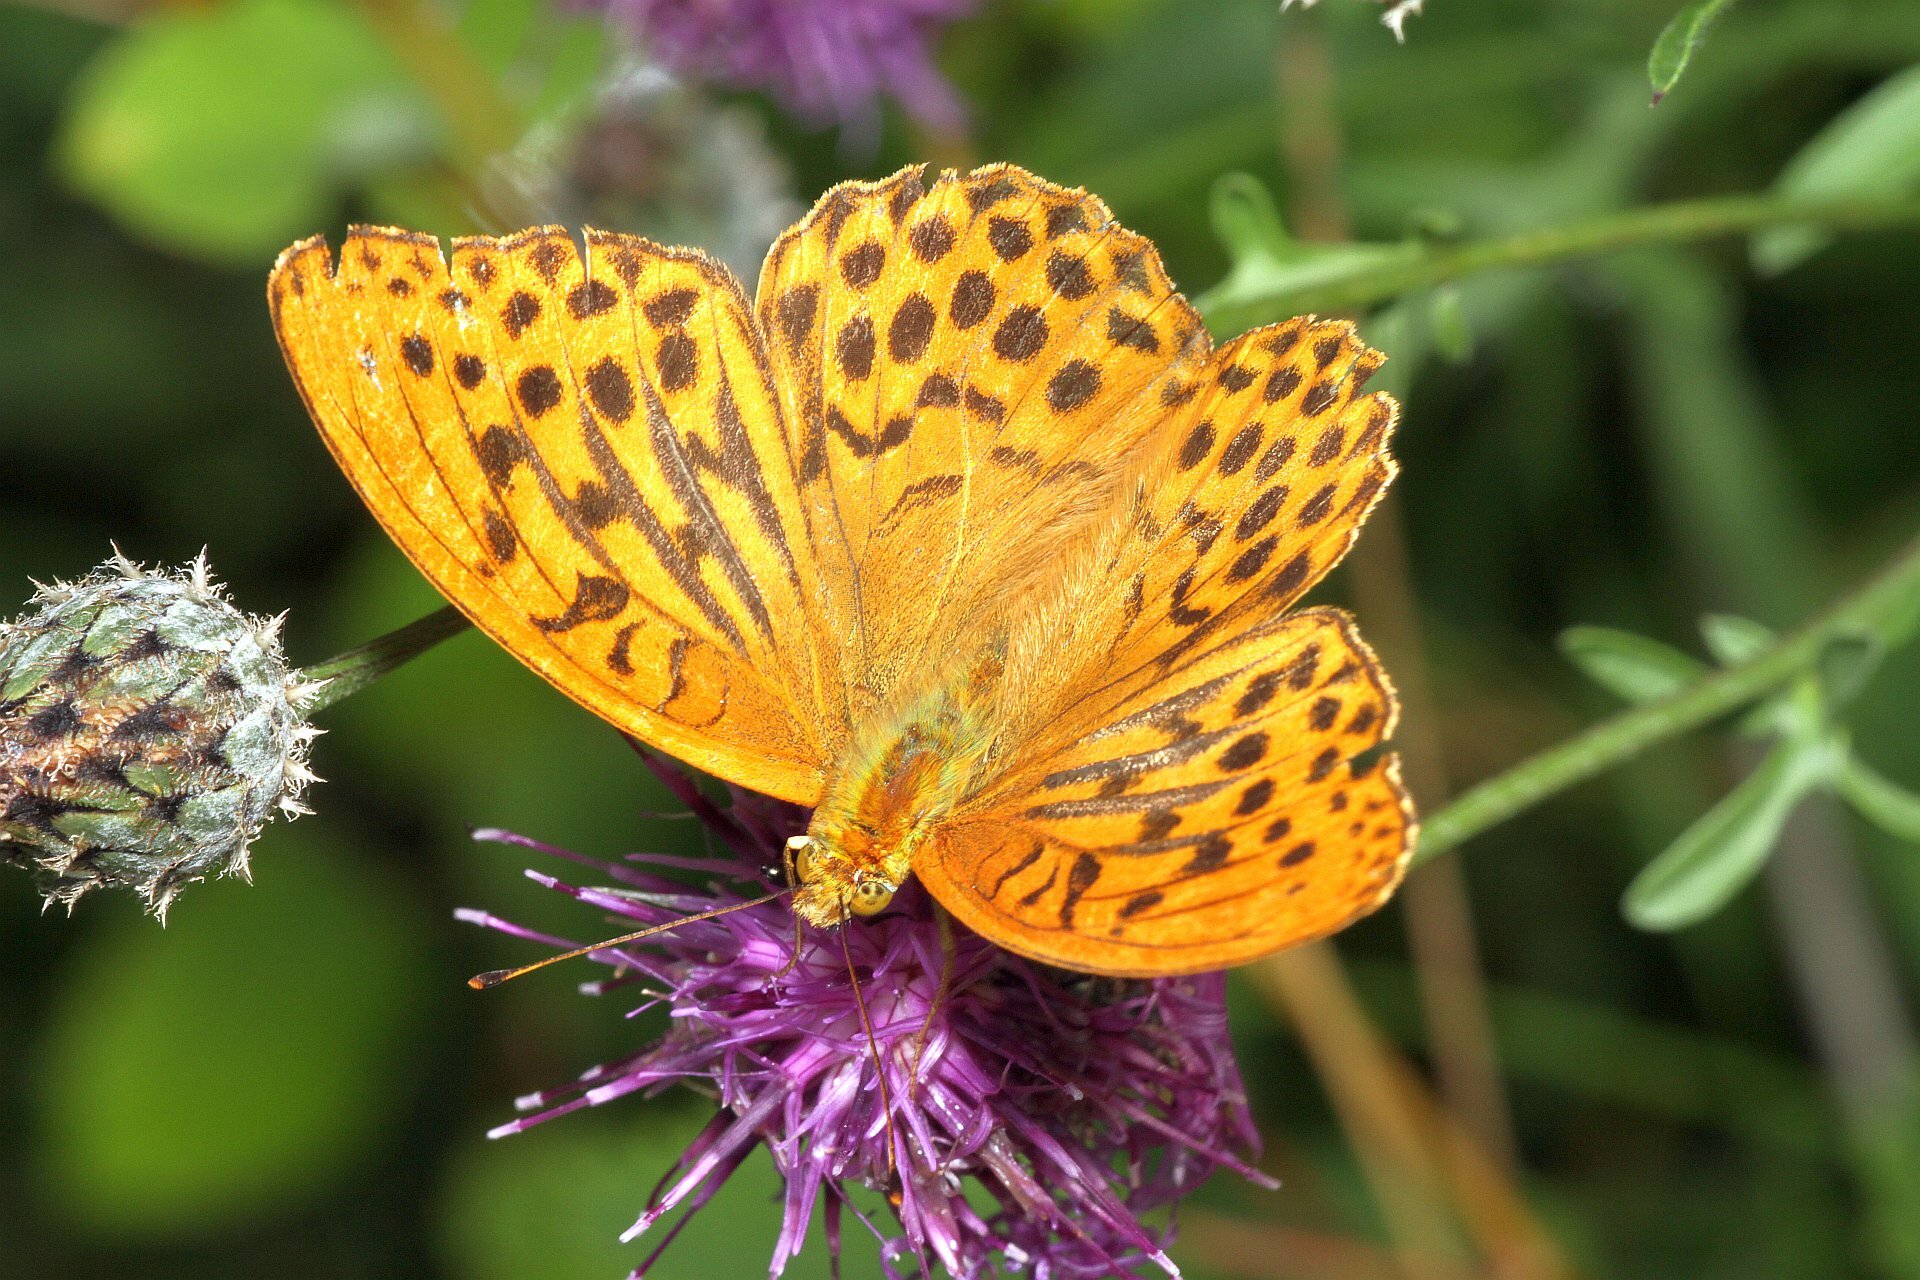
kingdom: Animalia
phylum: Arthropoda
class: Insecta
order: Lepidoptera
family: Nymphalidae
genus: Argynnis
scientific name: Argynnis paphia
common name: Silver-washed fritillary
